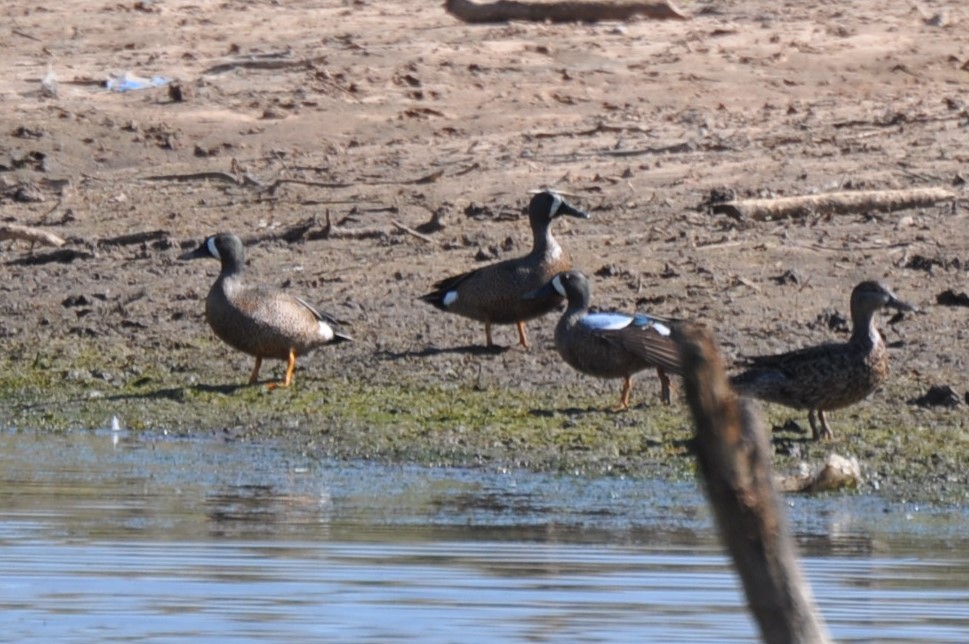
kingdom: Animalia
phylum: Chordata
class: Aves
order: Anseriformes
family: Anatidae
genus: Spatula
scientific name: Spatula discors
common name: Blue-winged teal
